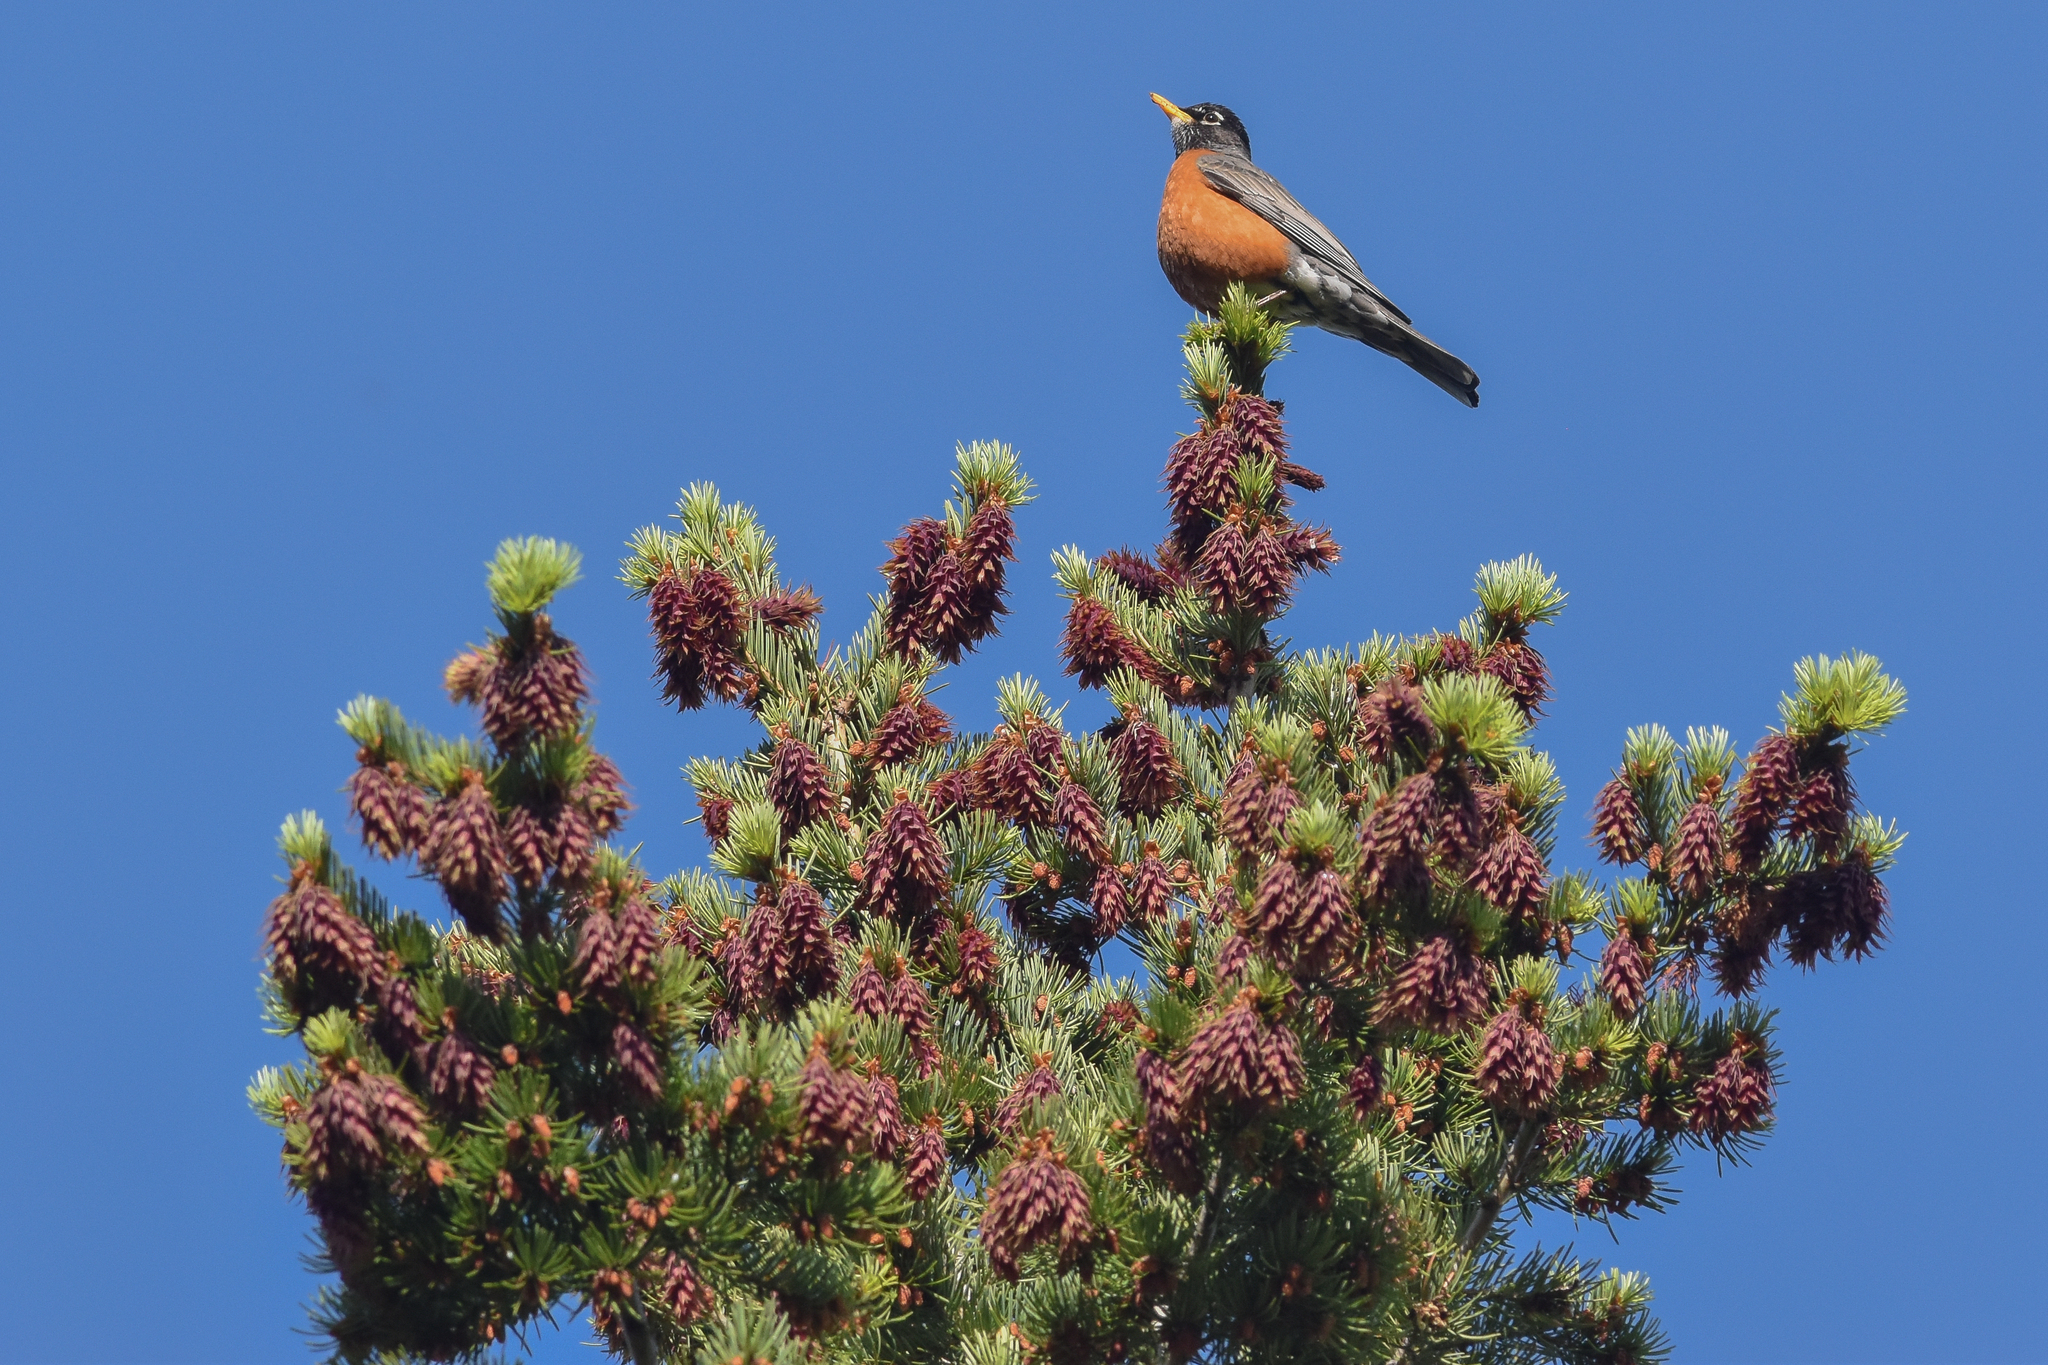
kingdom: Animalia
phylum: Chordata
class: Aves
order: Passeriformes
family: Turdidae
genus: Turdus
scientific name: Turdus migratorius
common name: American robin
